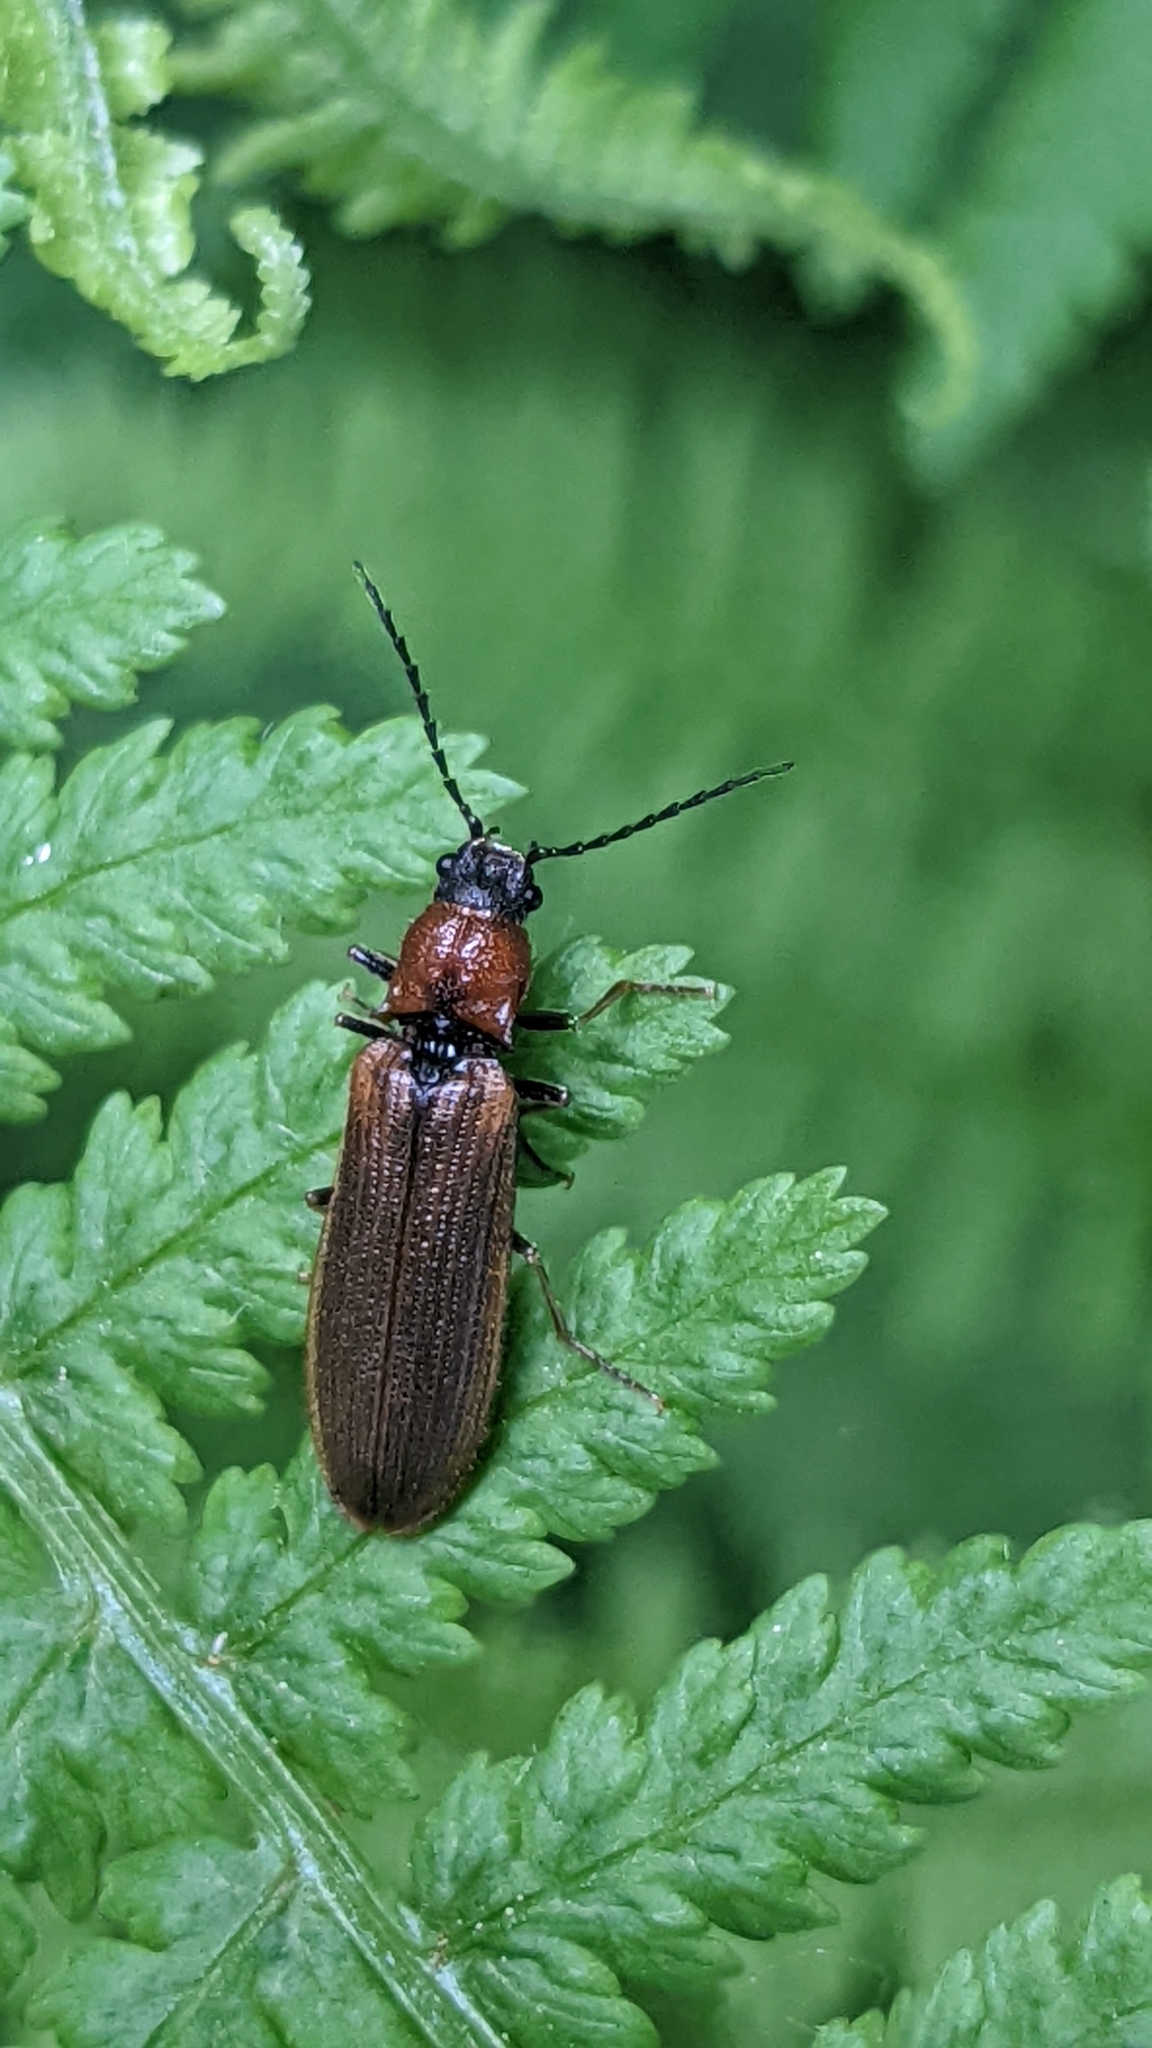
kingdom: Animalia
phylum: Arthropoda
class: Insecta
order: Coleoptera
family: Elateridae
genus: Denticollis
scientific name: Denticollis linearis
